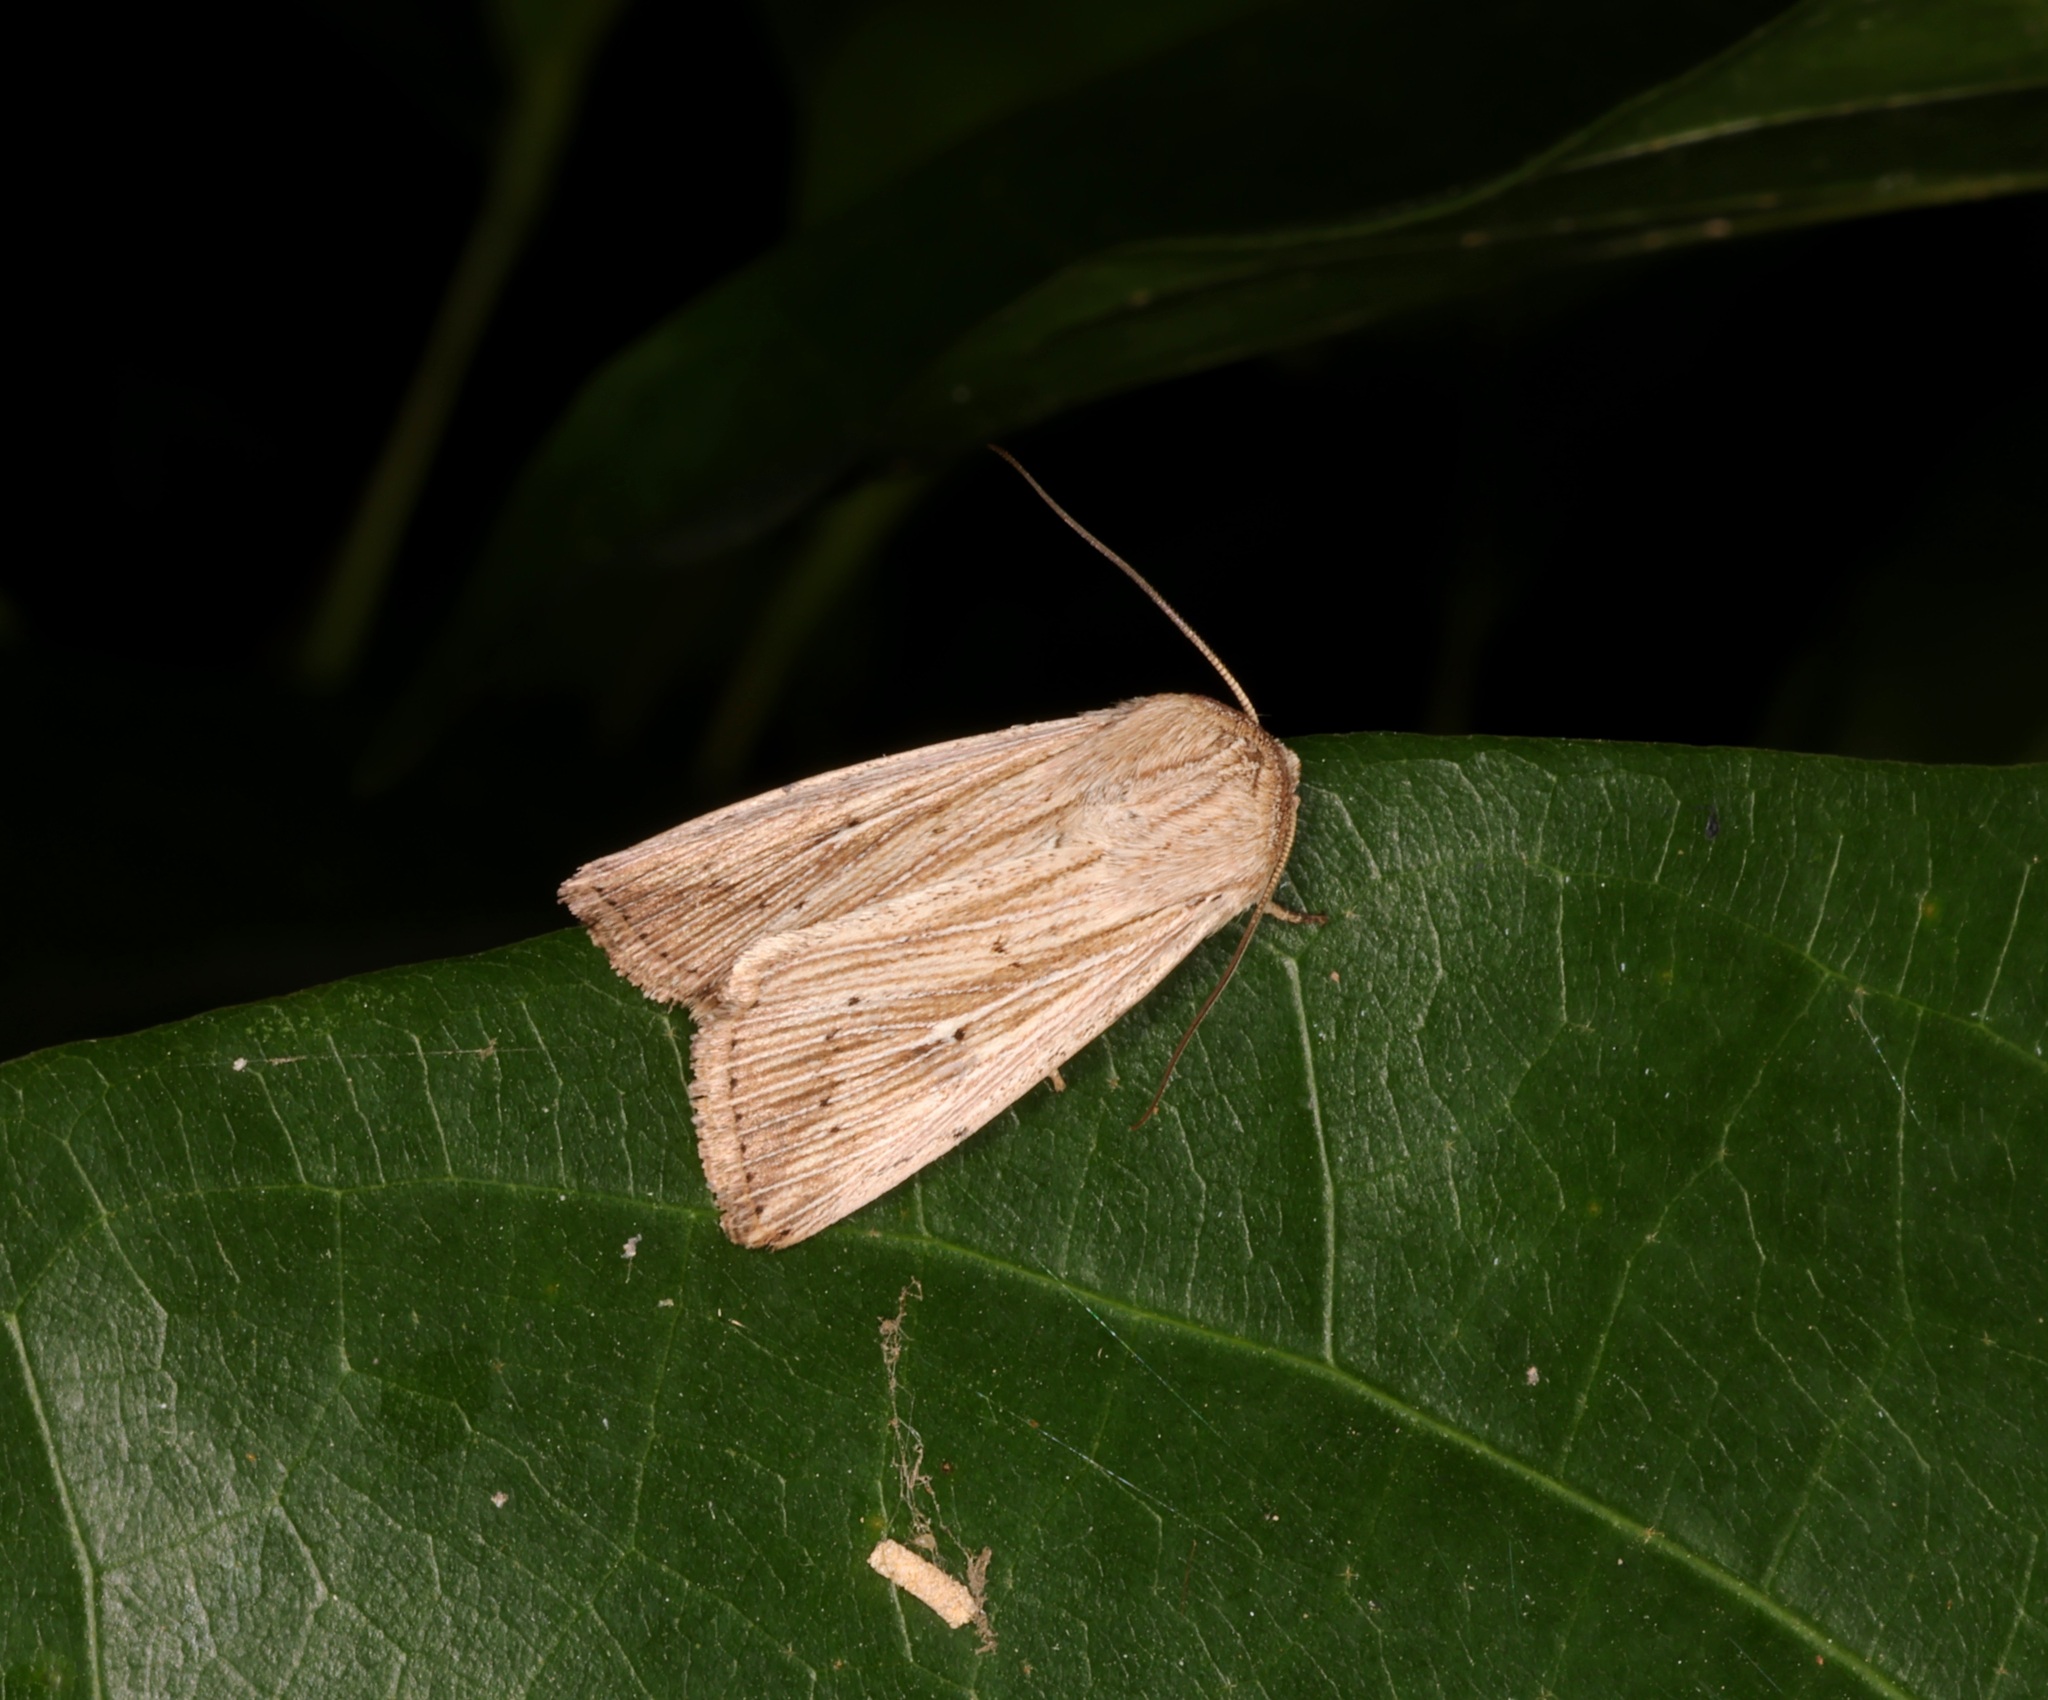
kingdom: Animalia
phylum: Arthropoda
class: Insecta
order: Lepidoptera
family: Noctuidae
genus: Leucania
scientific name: Leucania simillima
